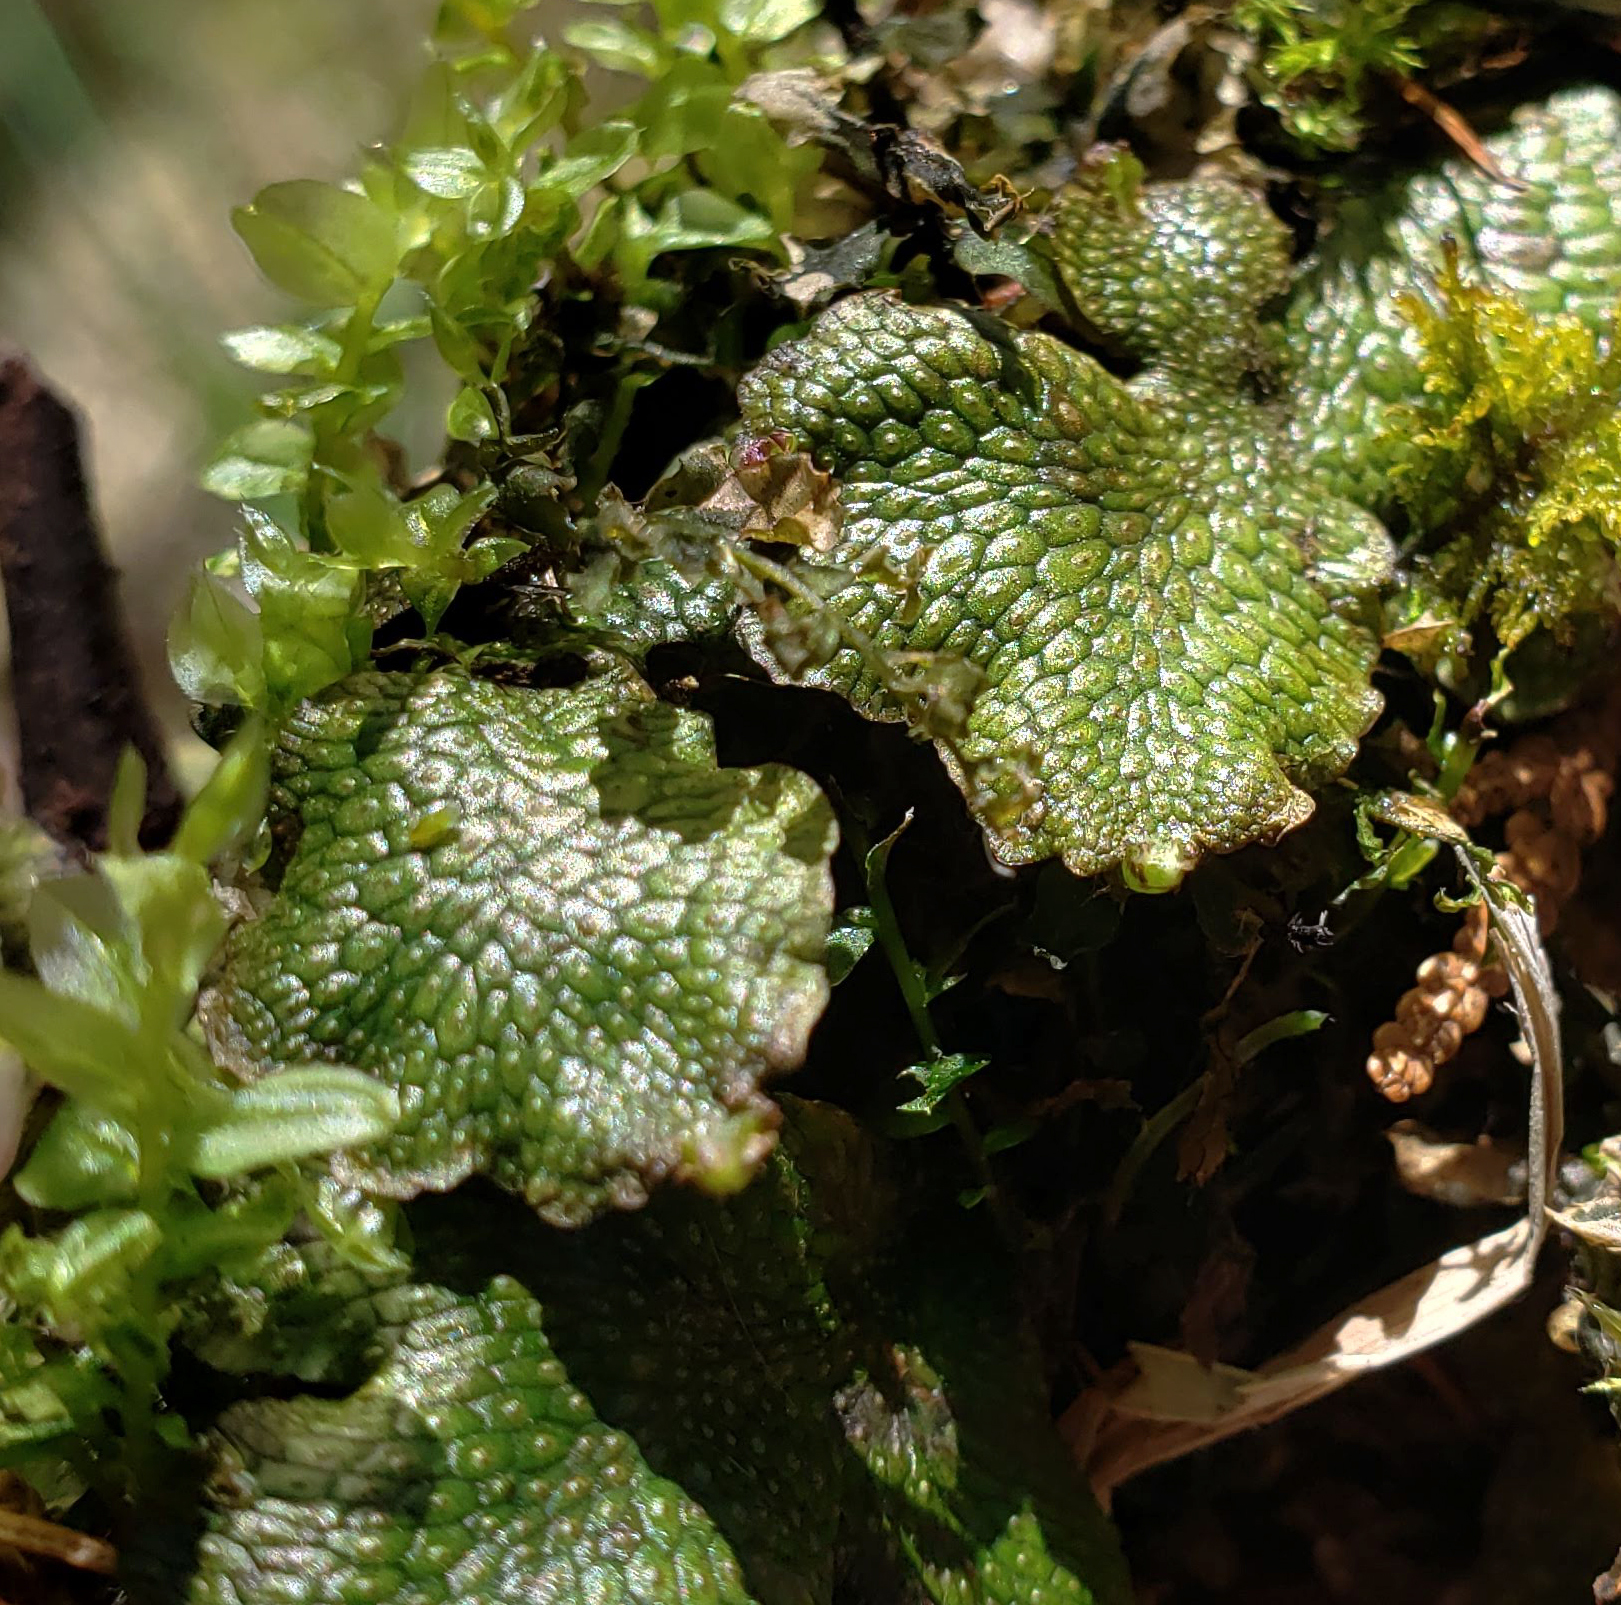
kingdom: Plantae
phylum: Marchantiophyta
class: Marchantiopsida
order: Marchantiales
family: Conocephalaceae
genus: Conocephalum
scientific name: Conocephalum salebrosum
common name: Cat-tongue liverwort
